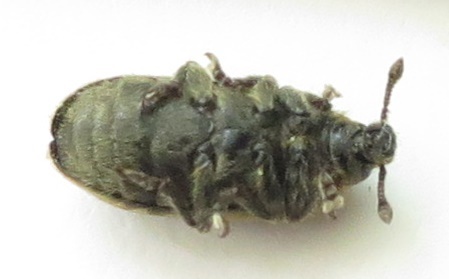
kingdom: Animalia
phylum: Arthropoda
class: Insecta
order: Coleoptera
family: Curculionidae
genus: Rhinocyllus
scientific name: Rhinocyllus conicus
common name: Weevil
